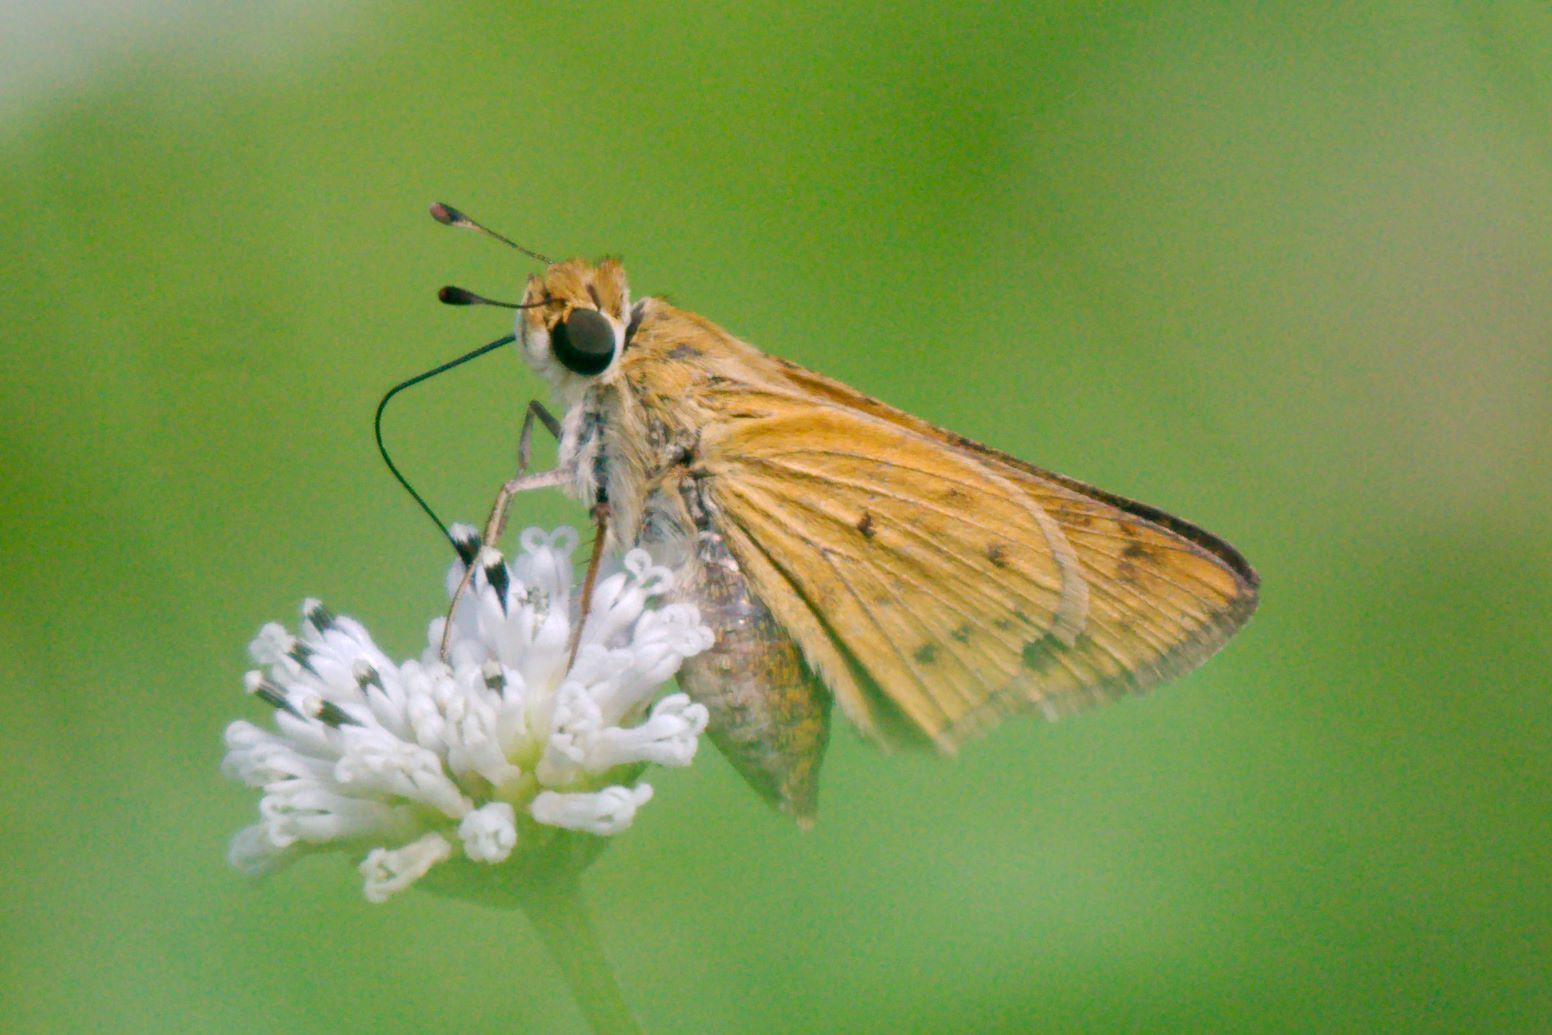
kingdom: Animalia
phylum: Arthropoda
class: Insecta
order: Lepidoptera
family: Hesperiidae
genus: Hylephila
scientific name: Hylephila phyleus
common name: Fiery skipper
